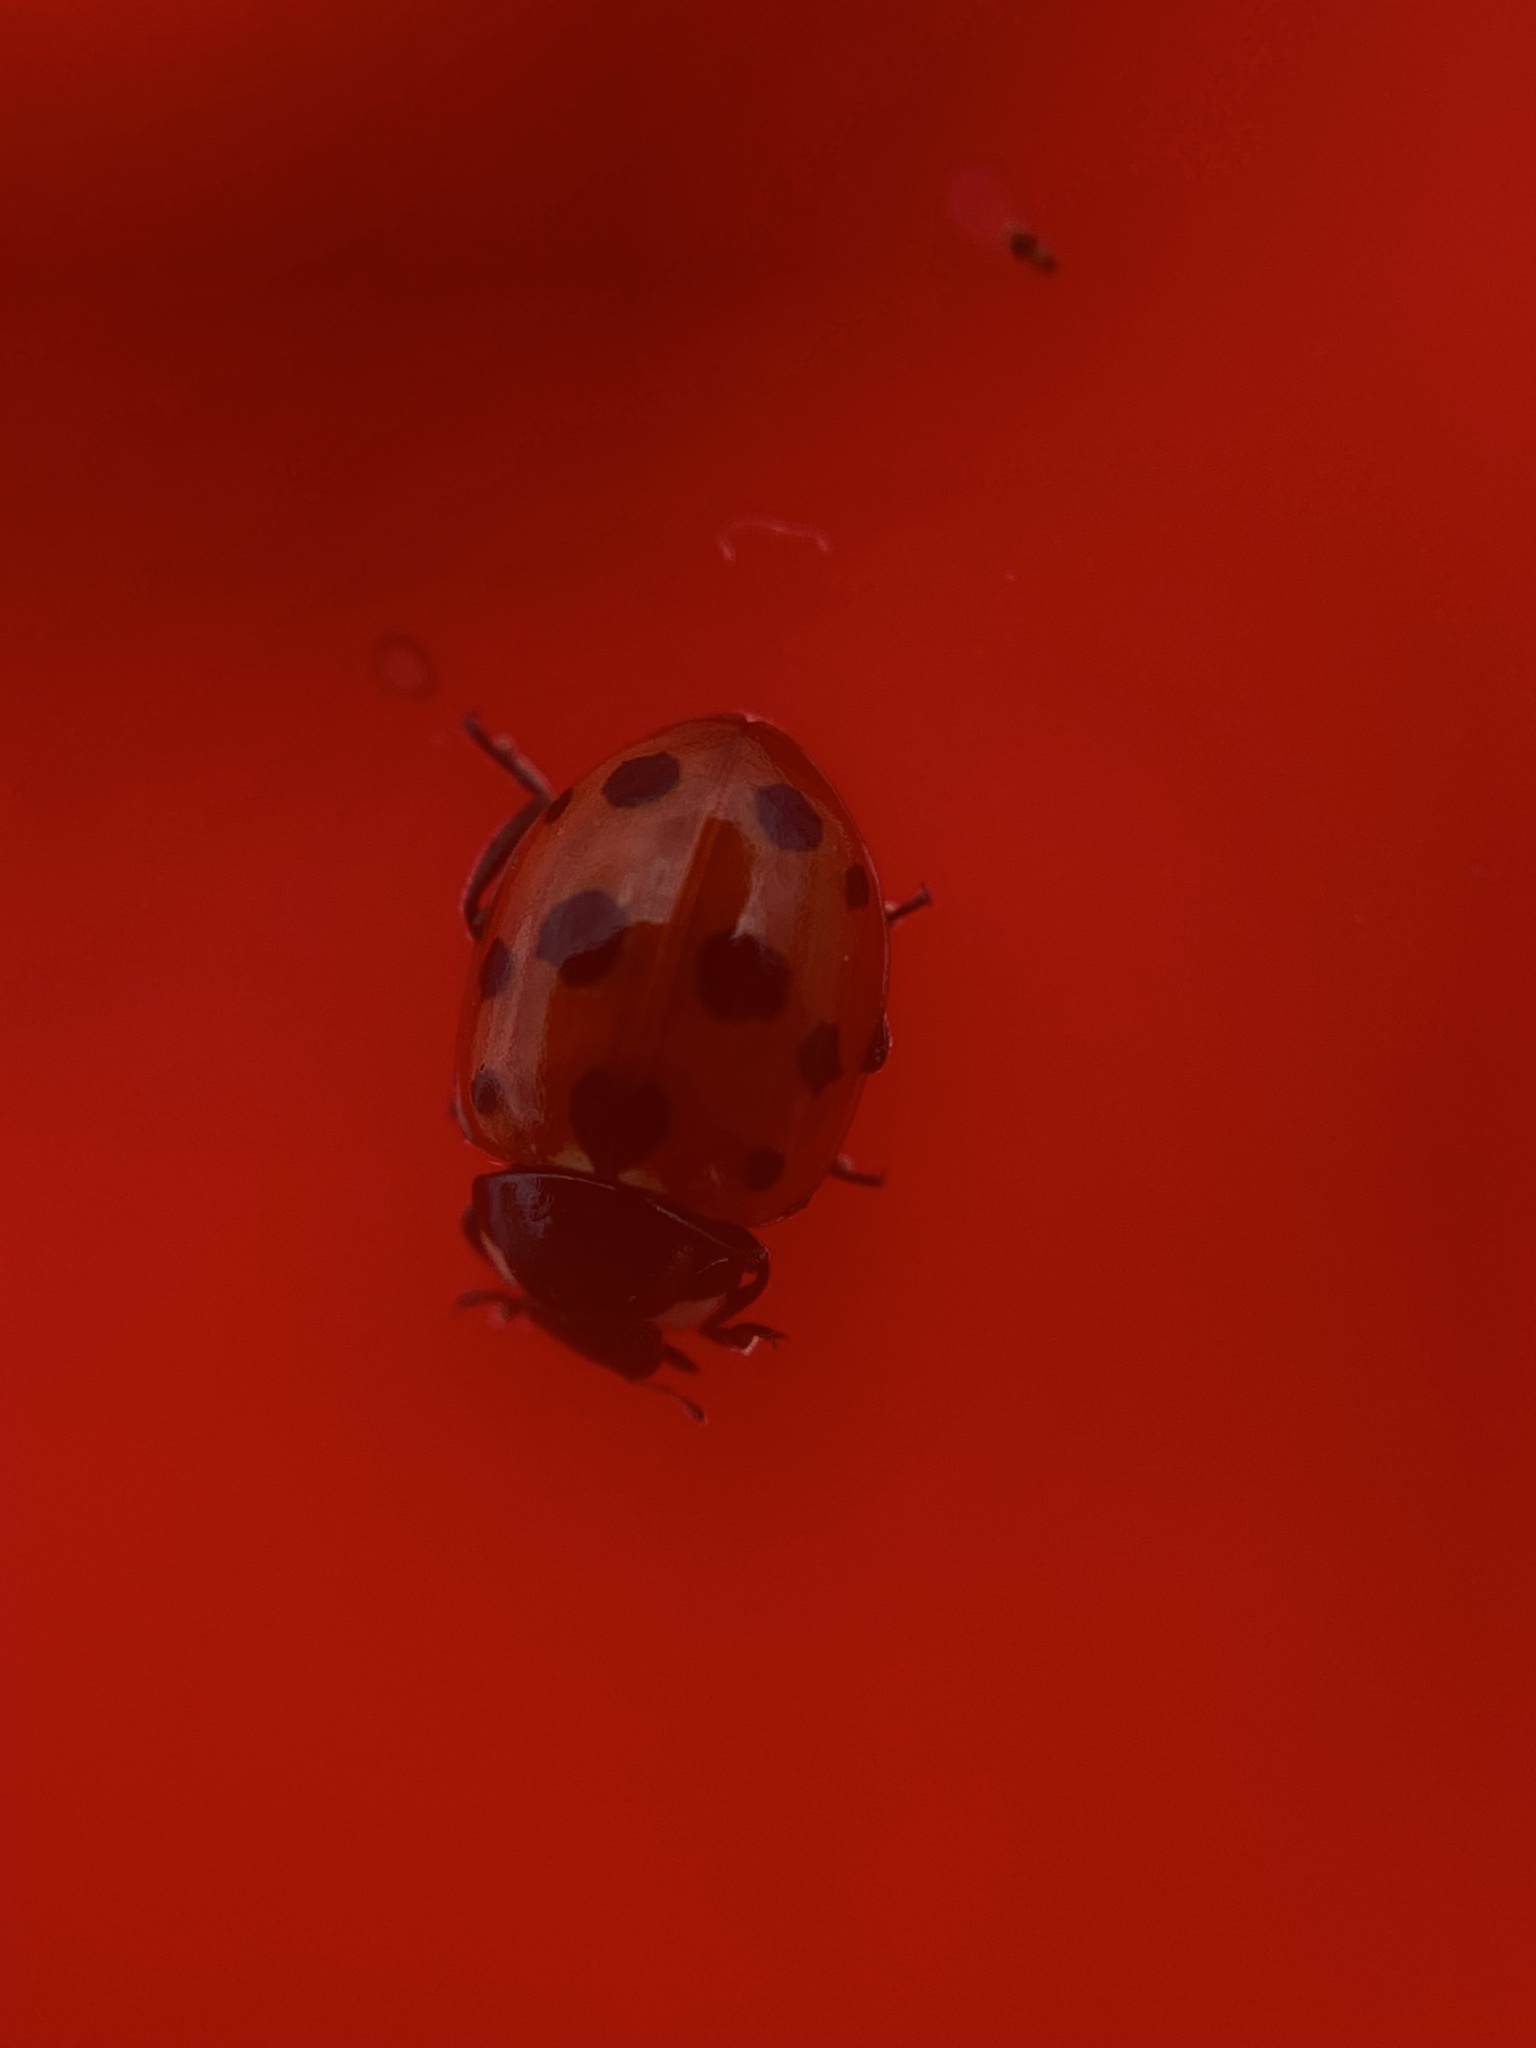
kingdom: Animalia
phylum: Arthropoda
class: Insecta
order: Coleoptera
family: Coccinellidae
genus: Coccinella
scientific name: Coccinella undecimpunctata
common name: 11-spot ladybird
